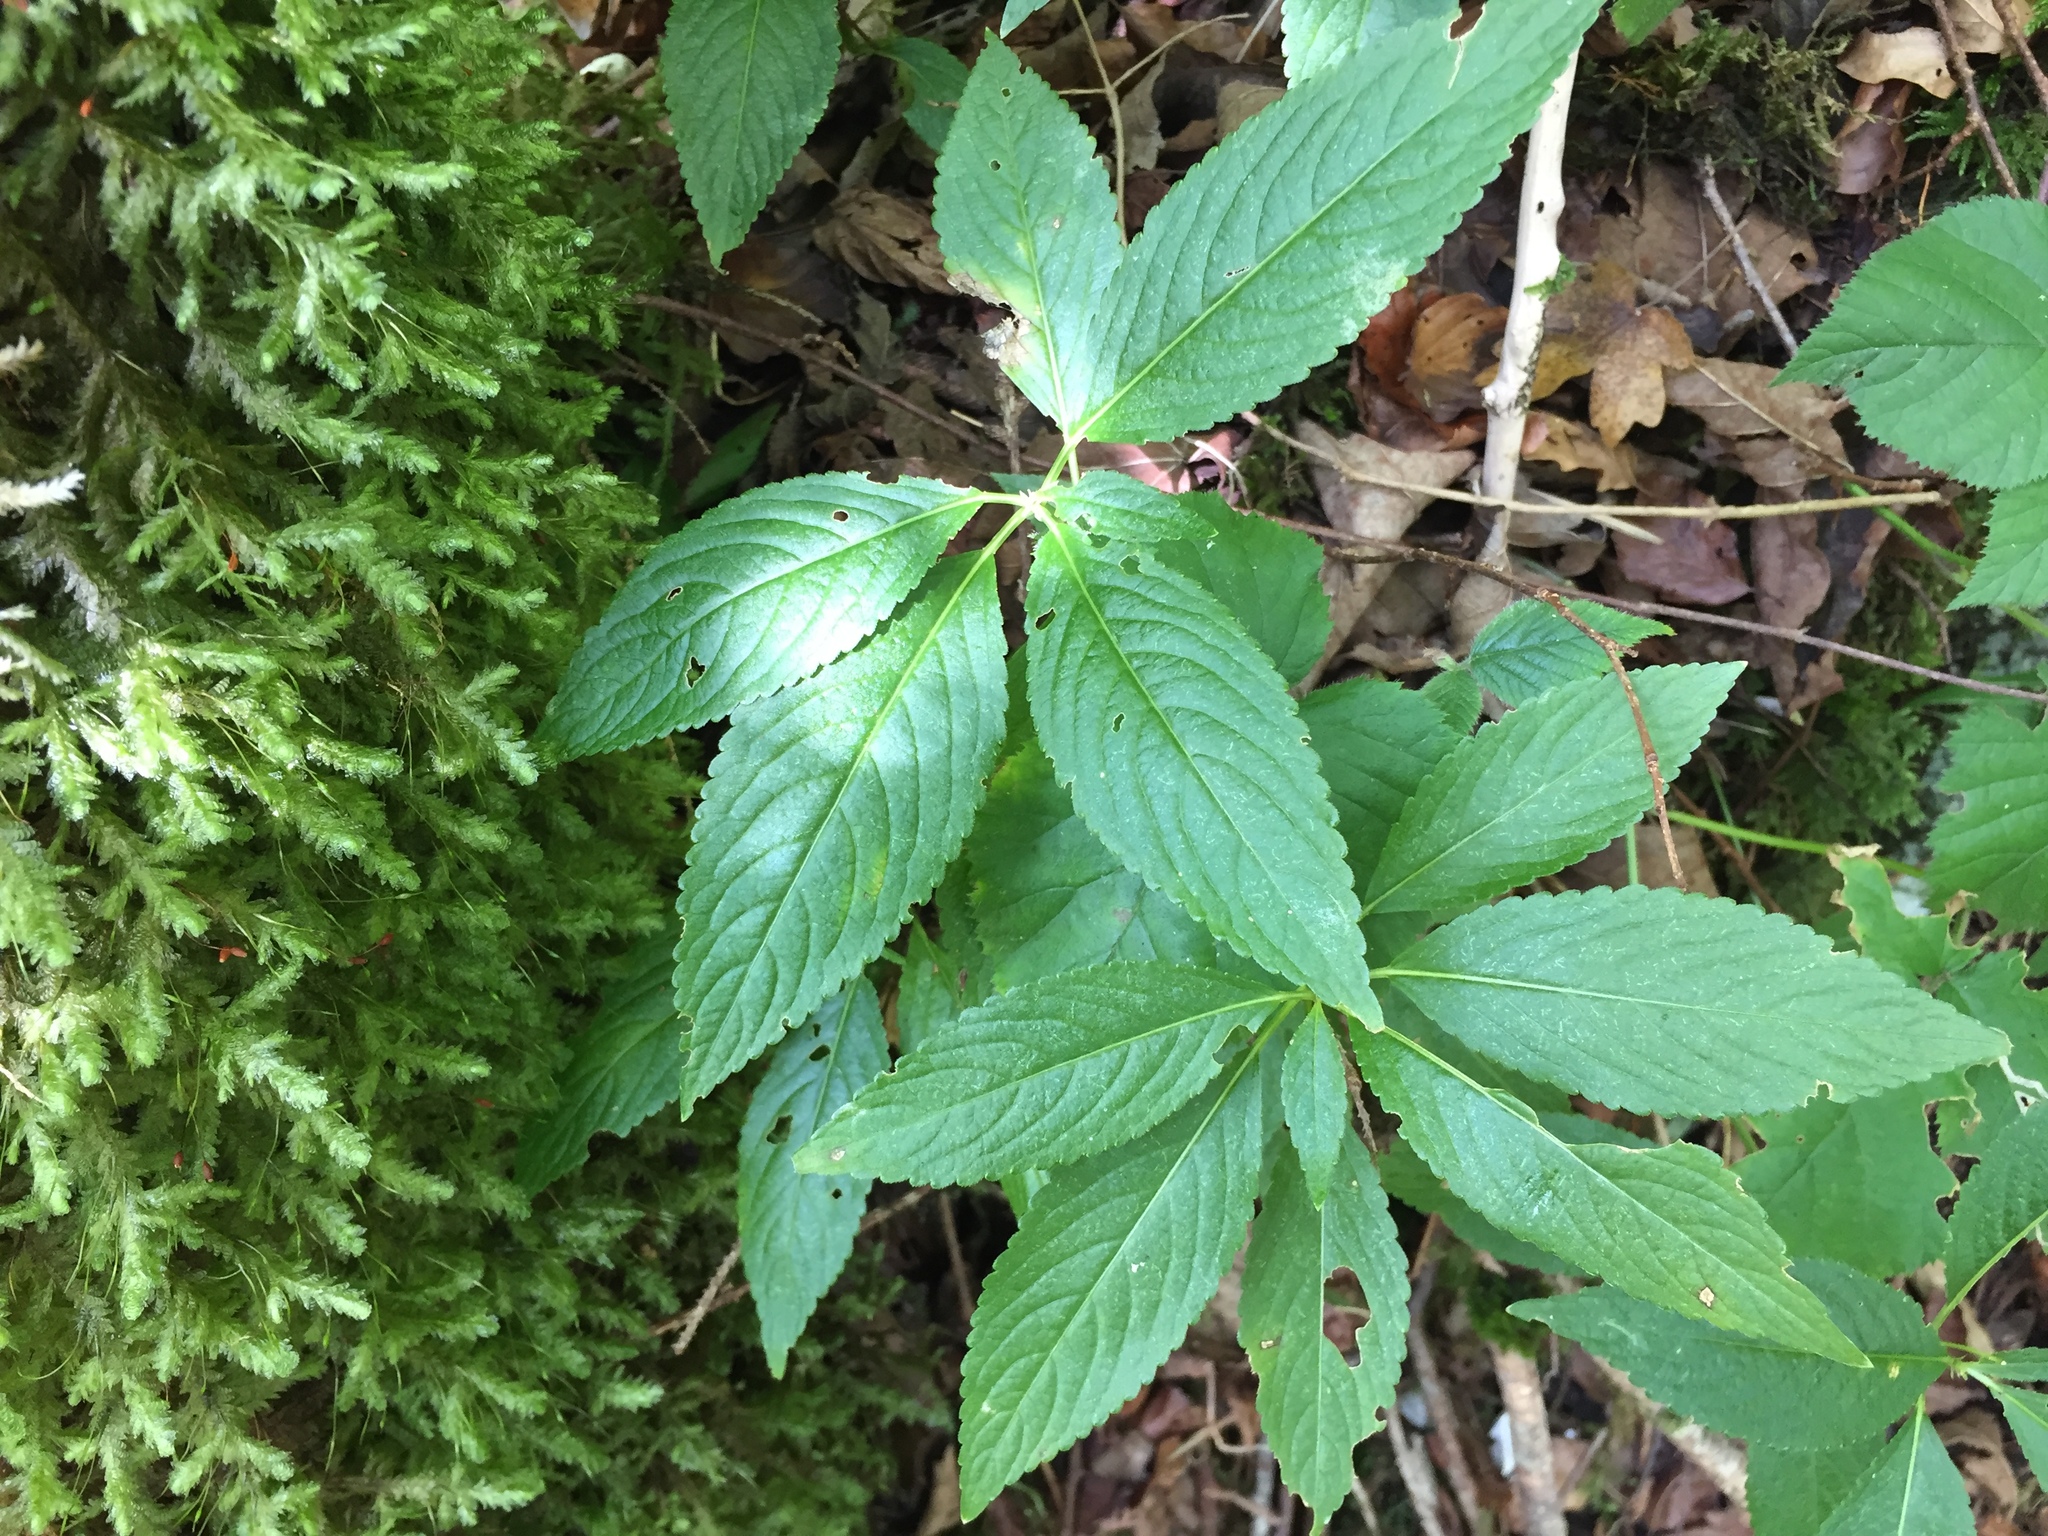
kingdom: Plantae
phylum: Tracheophyta
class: Magnoliopsida
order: Malpighiales
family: Euphorbiaceae
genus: Mercurialis
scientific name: Mercurialis perennis
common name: Dog mercury
